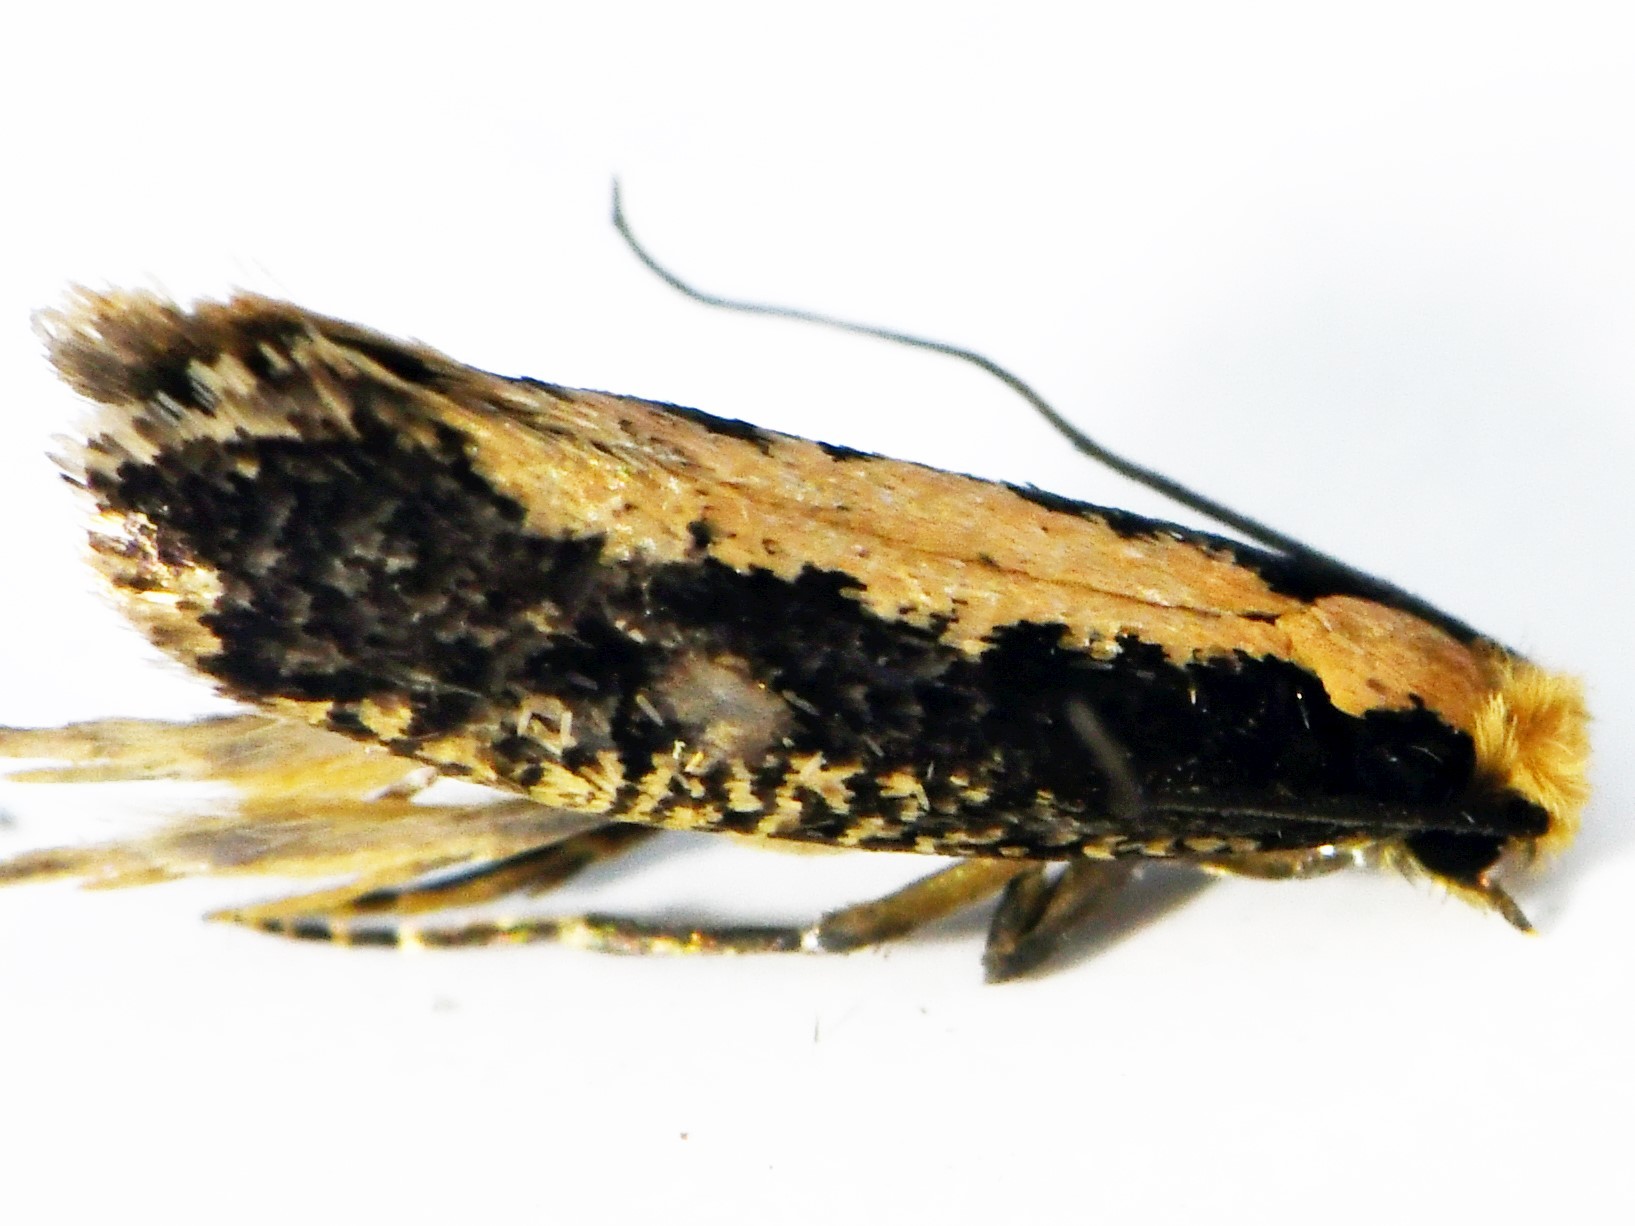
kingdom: Animalia
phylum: Arthropoda
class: Insecta
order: Lepidoptera
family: Tineidae
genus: Monopis
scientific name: Monopis crocicapitella
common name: Moth
